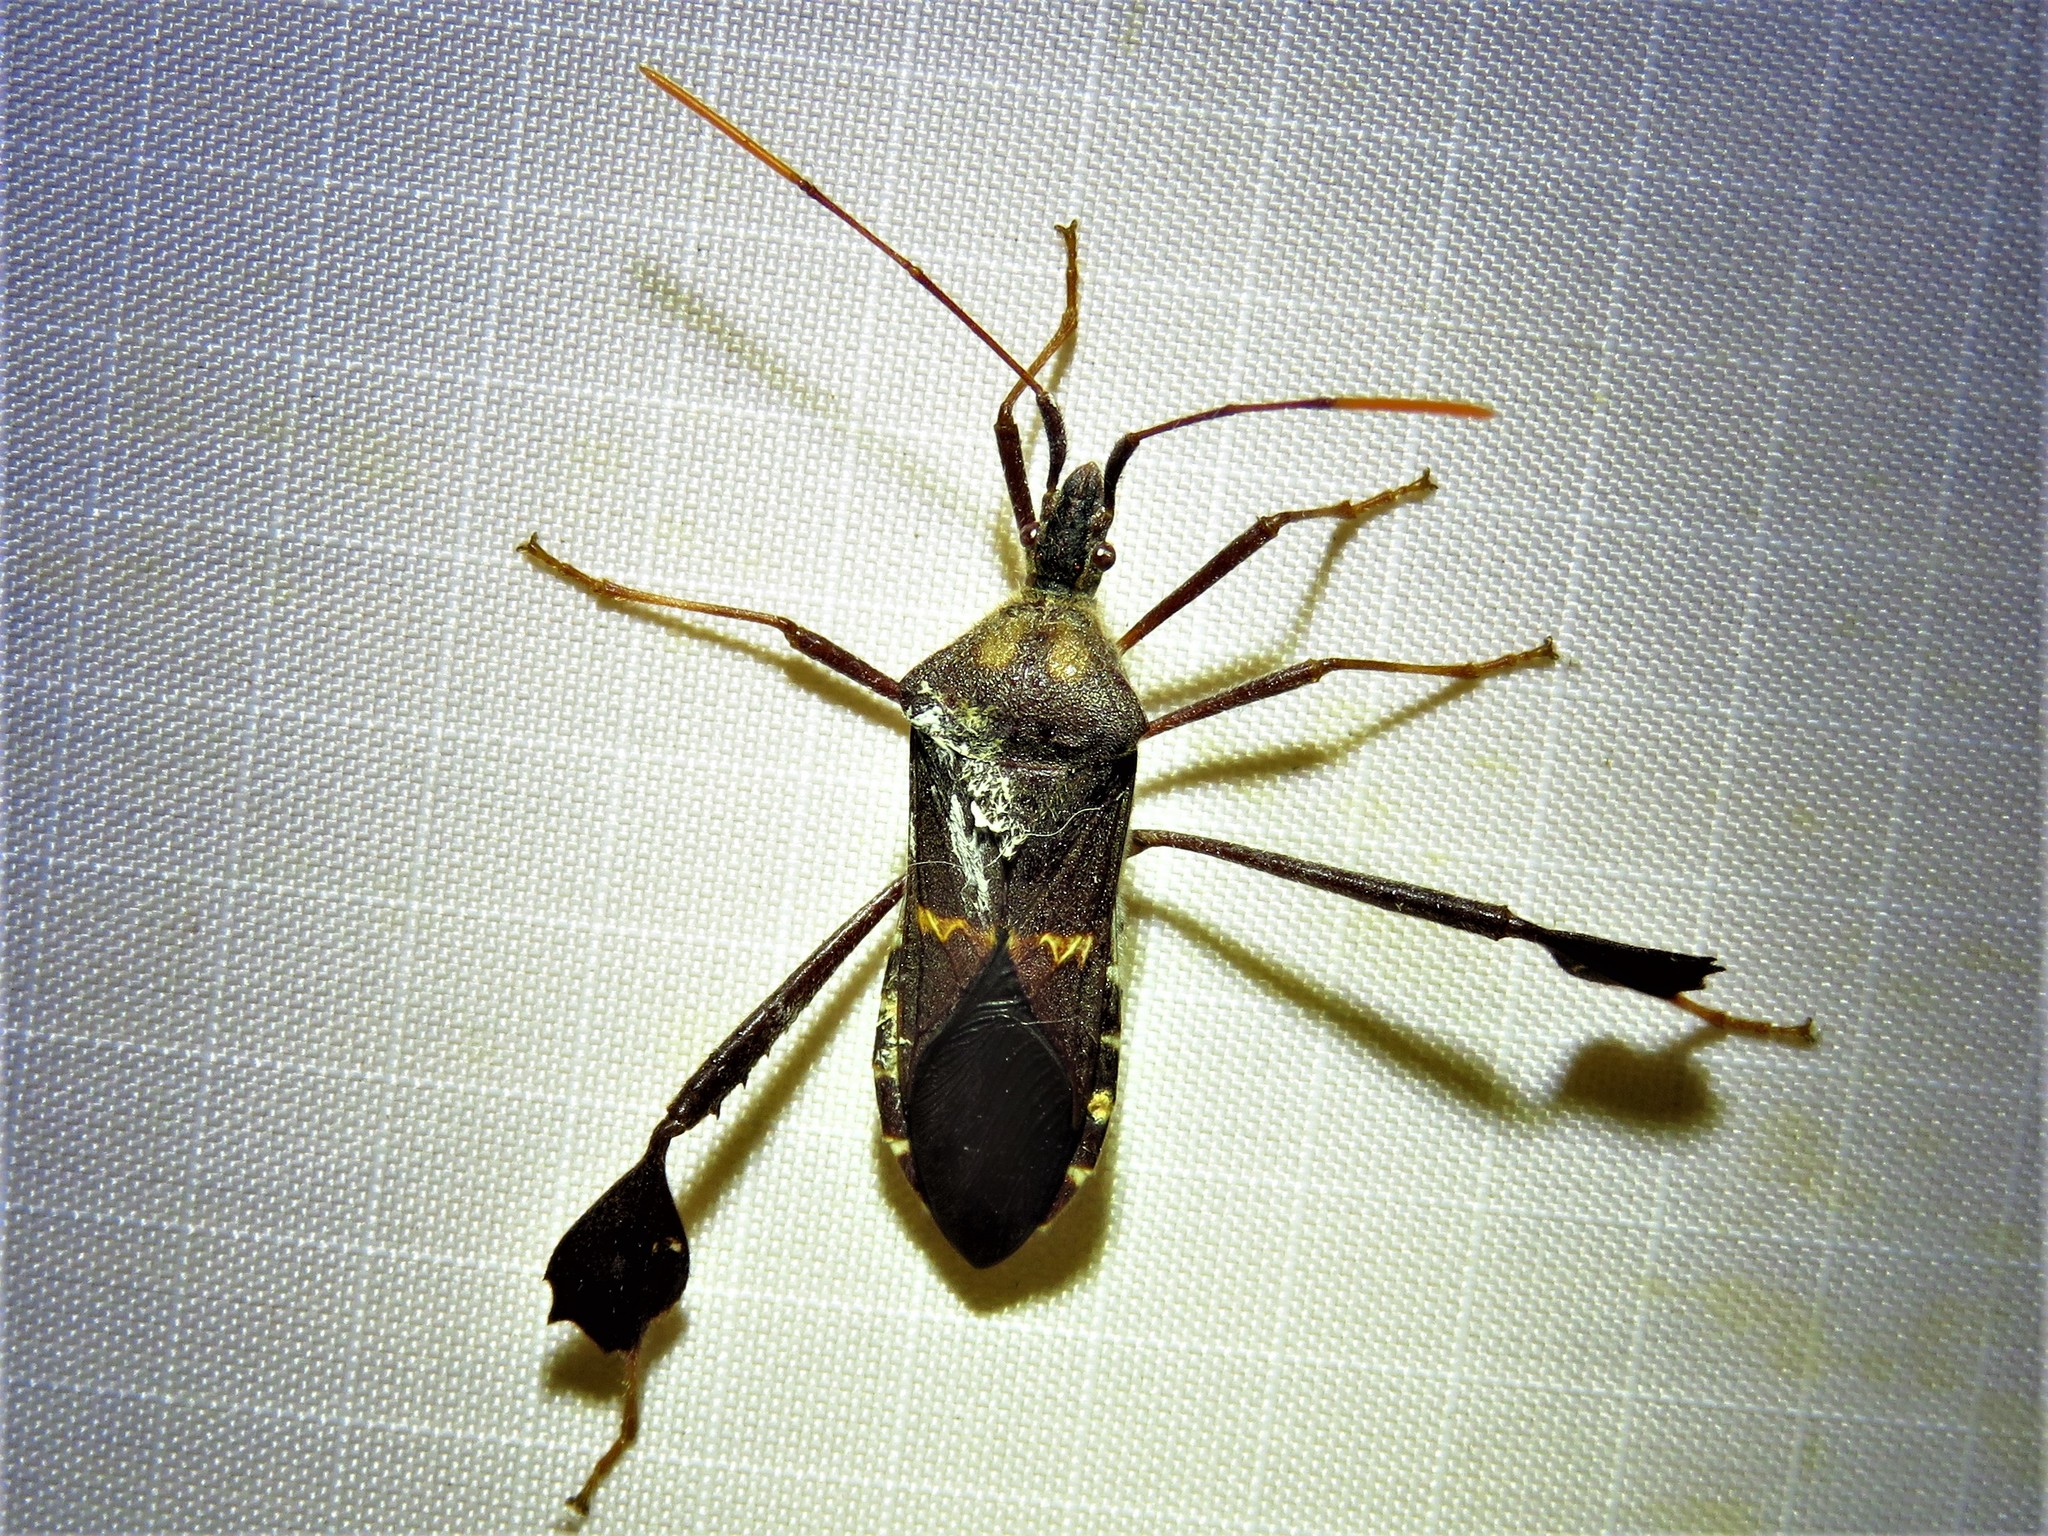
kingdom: Animalia
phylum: Arthropoda
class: Insecta
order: Hemiptera
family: Coreidae
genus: Leptoglossus
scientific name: Leptoglossus zonatus
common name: Large-legged bug
